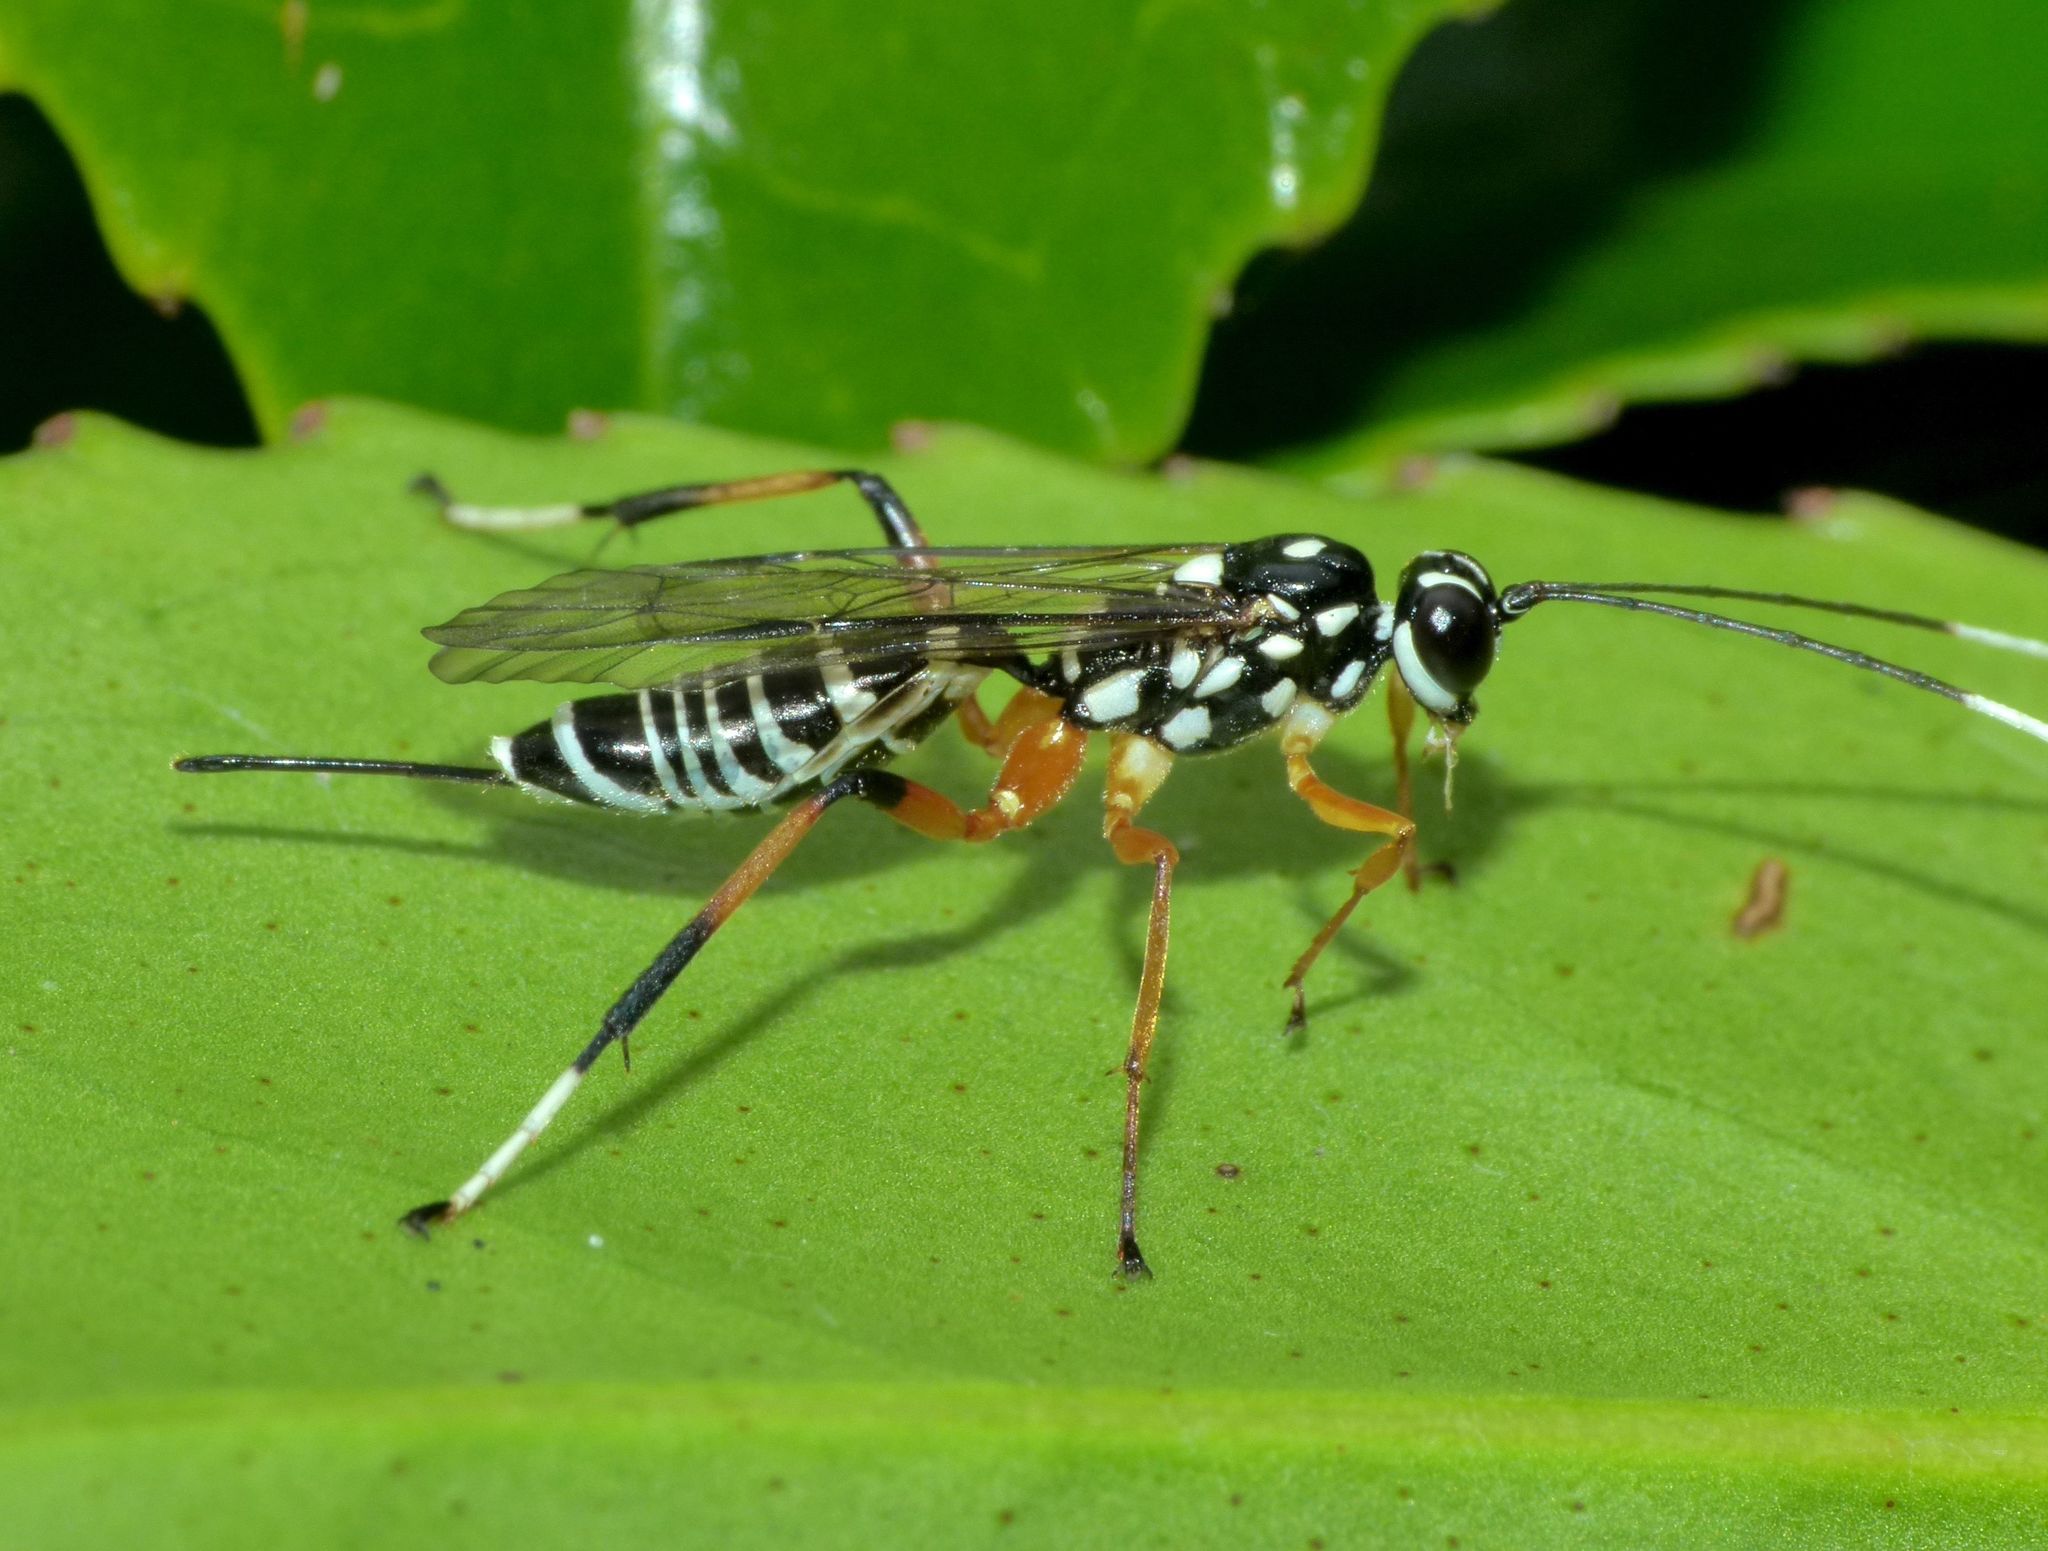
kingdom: Animalia
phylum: Arthropoda
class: Insecta
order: Hymenoptera
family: Ichneumonidae
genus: Xanthocryptus
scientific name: Xanthocryptus novozealandicus
